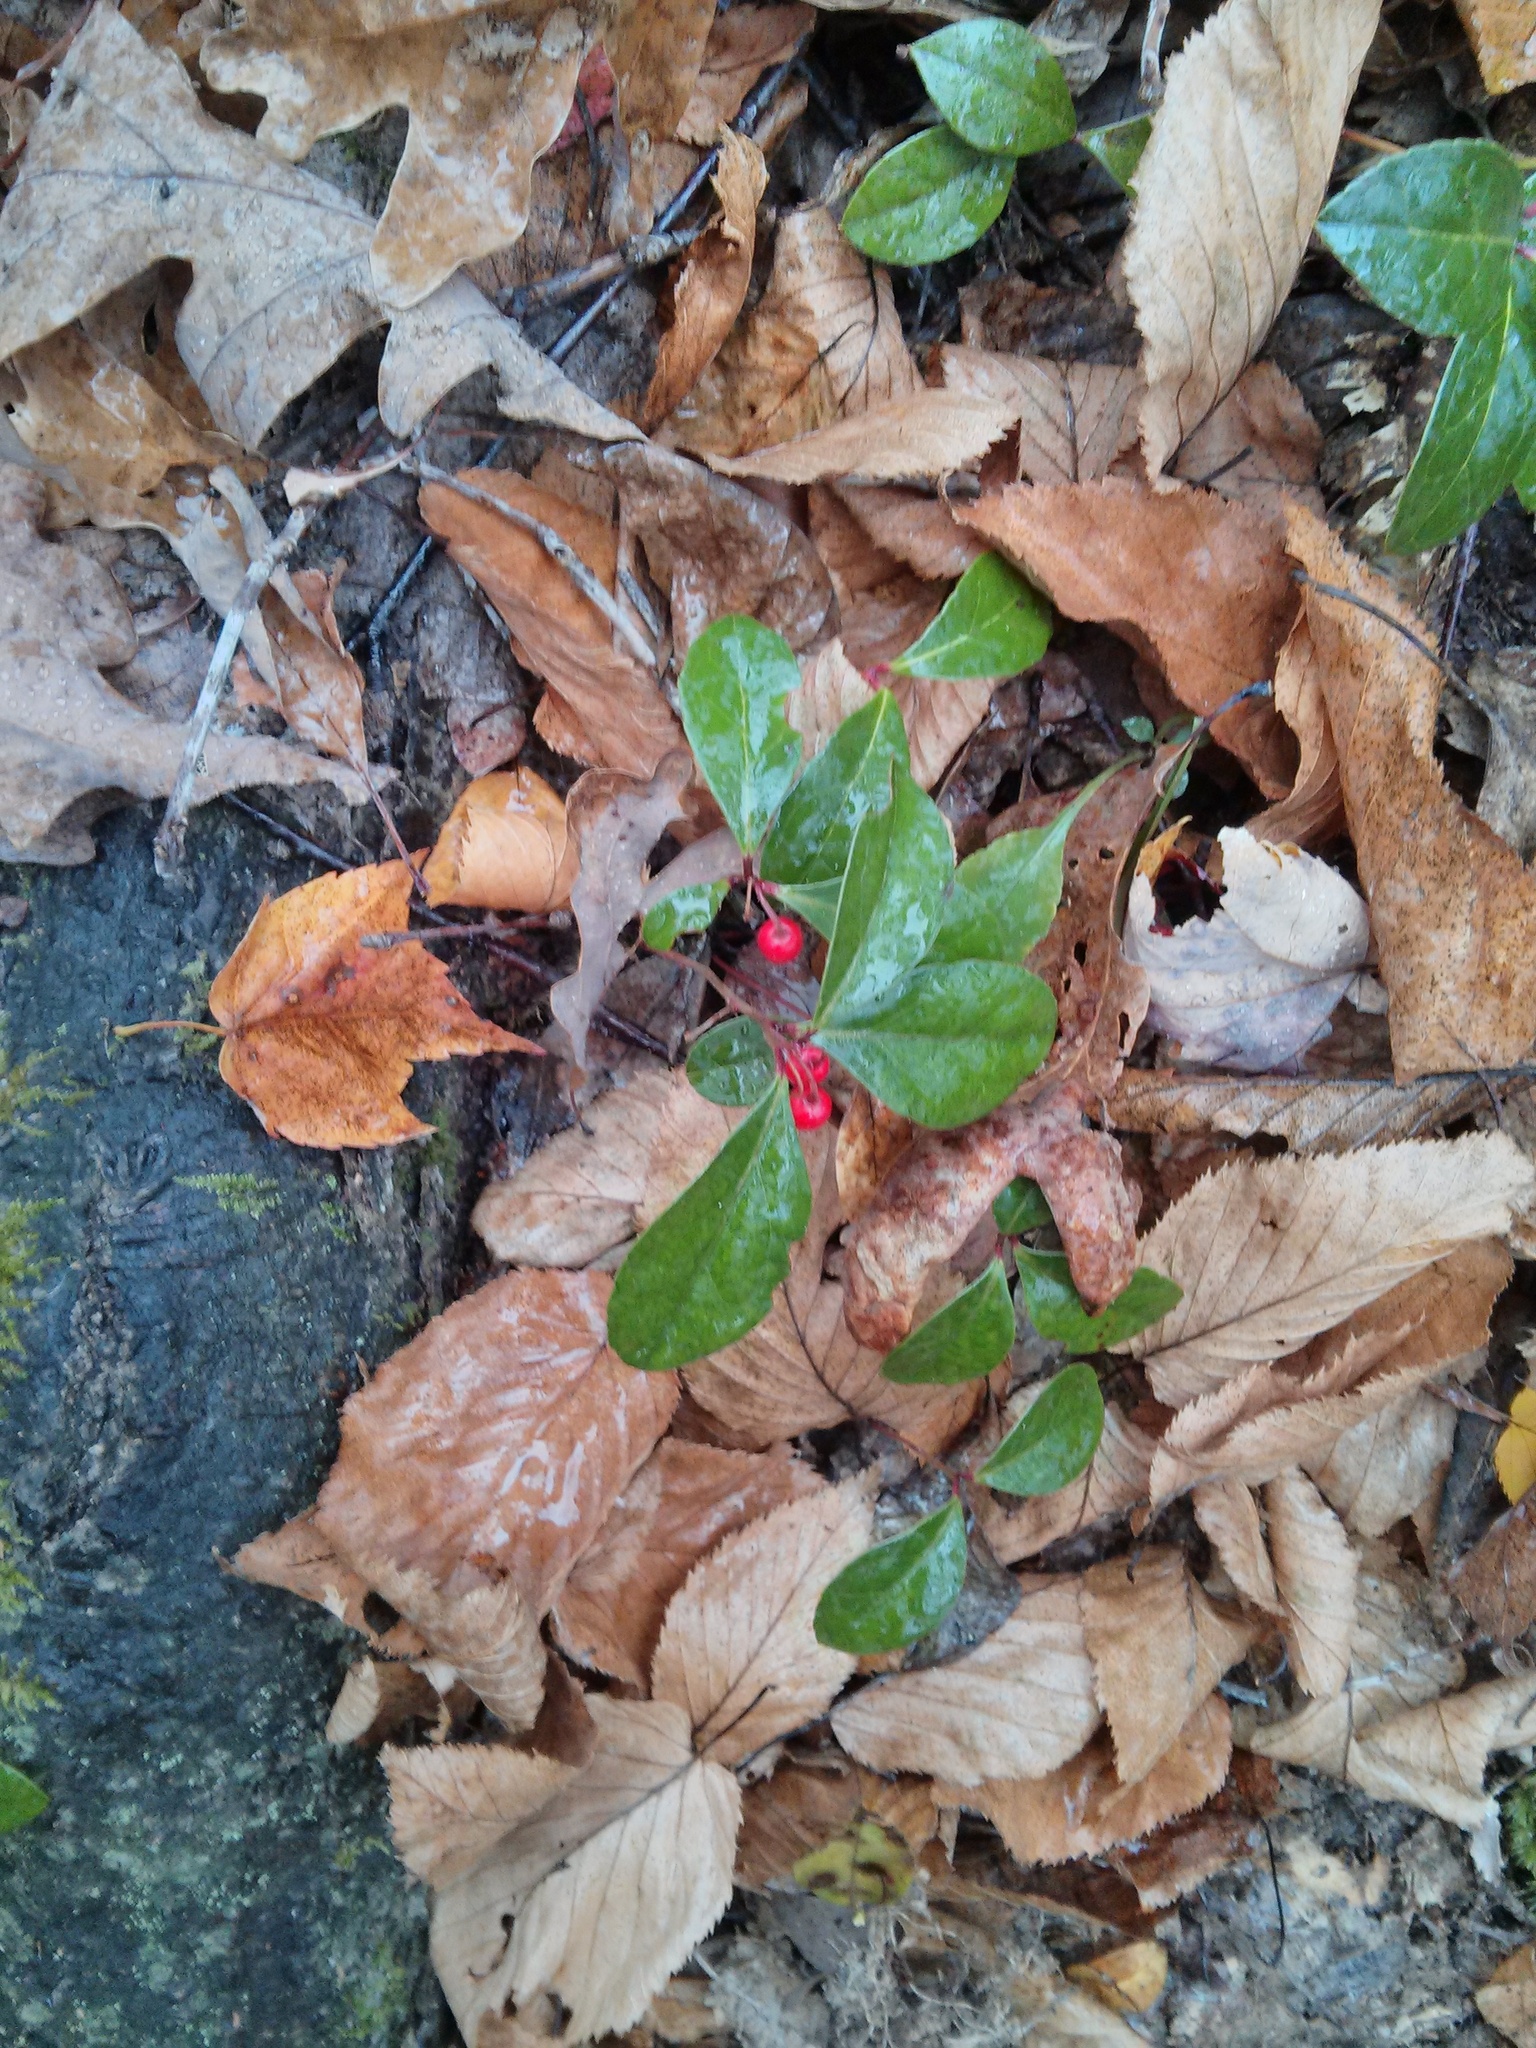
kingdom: Plantae
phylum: Tracheophyta
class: Magnoliopsida
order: Ericales
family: Ericaceae
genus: Gaultheria
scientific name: Gaultheria procumbens
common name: Checkerberry
